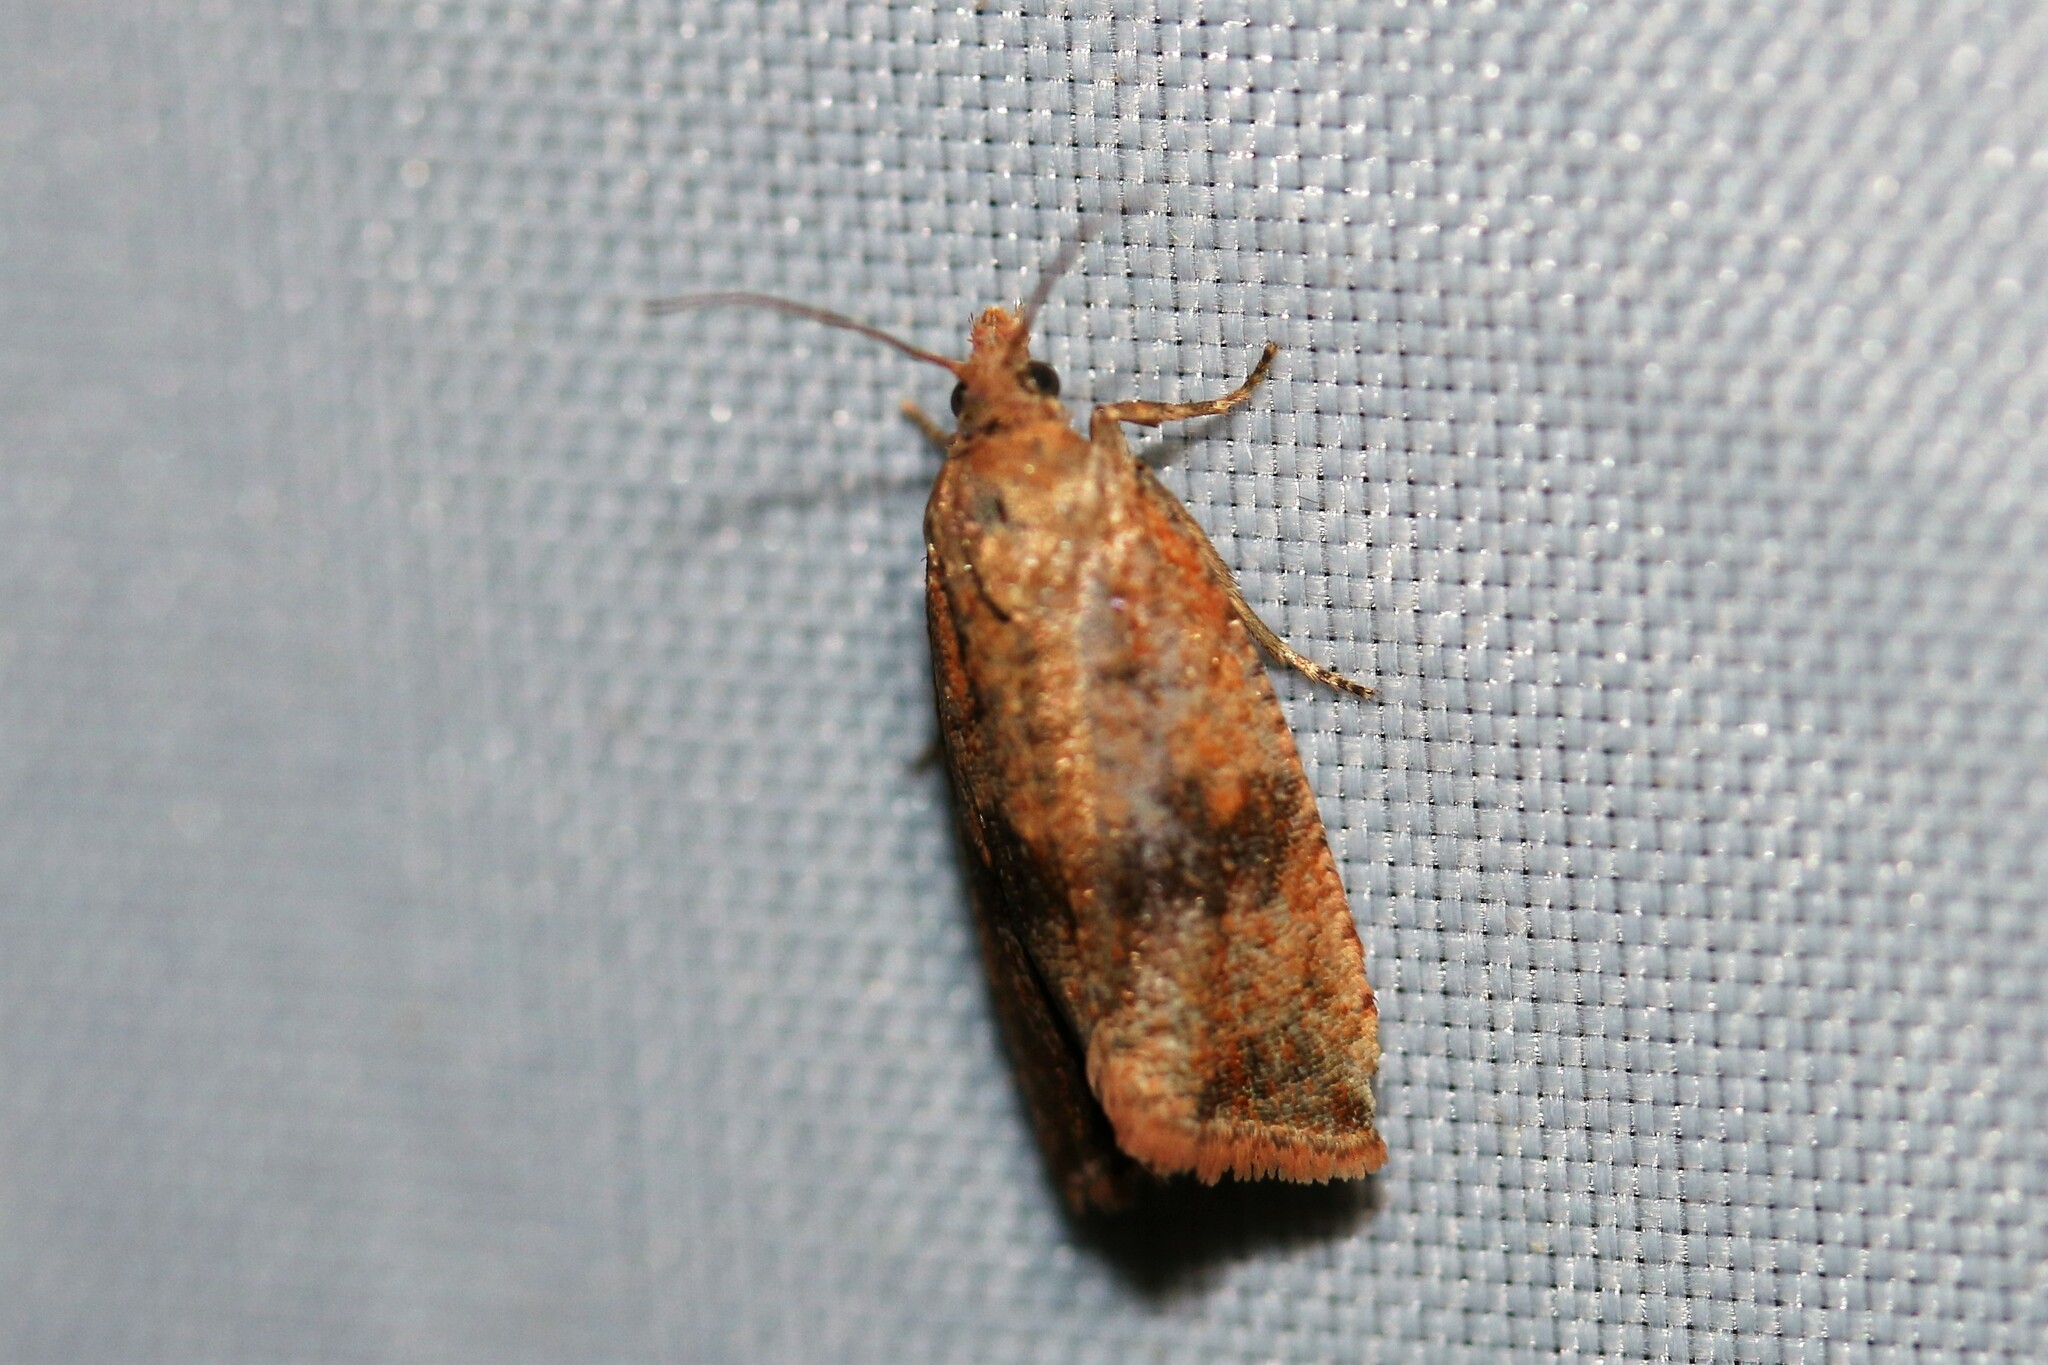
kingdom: Animalia
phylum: Arthropoda
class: Insecta
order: Lepidoptera
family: Tortricidae
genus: Celypha
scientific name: Celypha striana
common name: Barred marble
